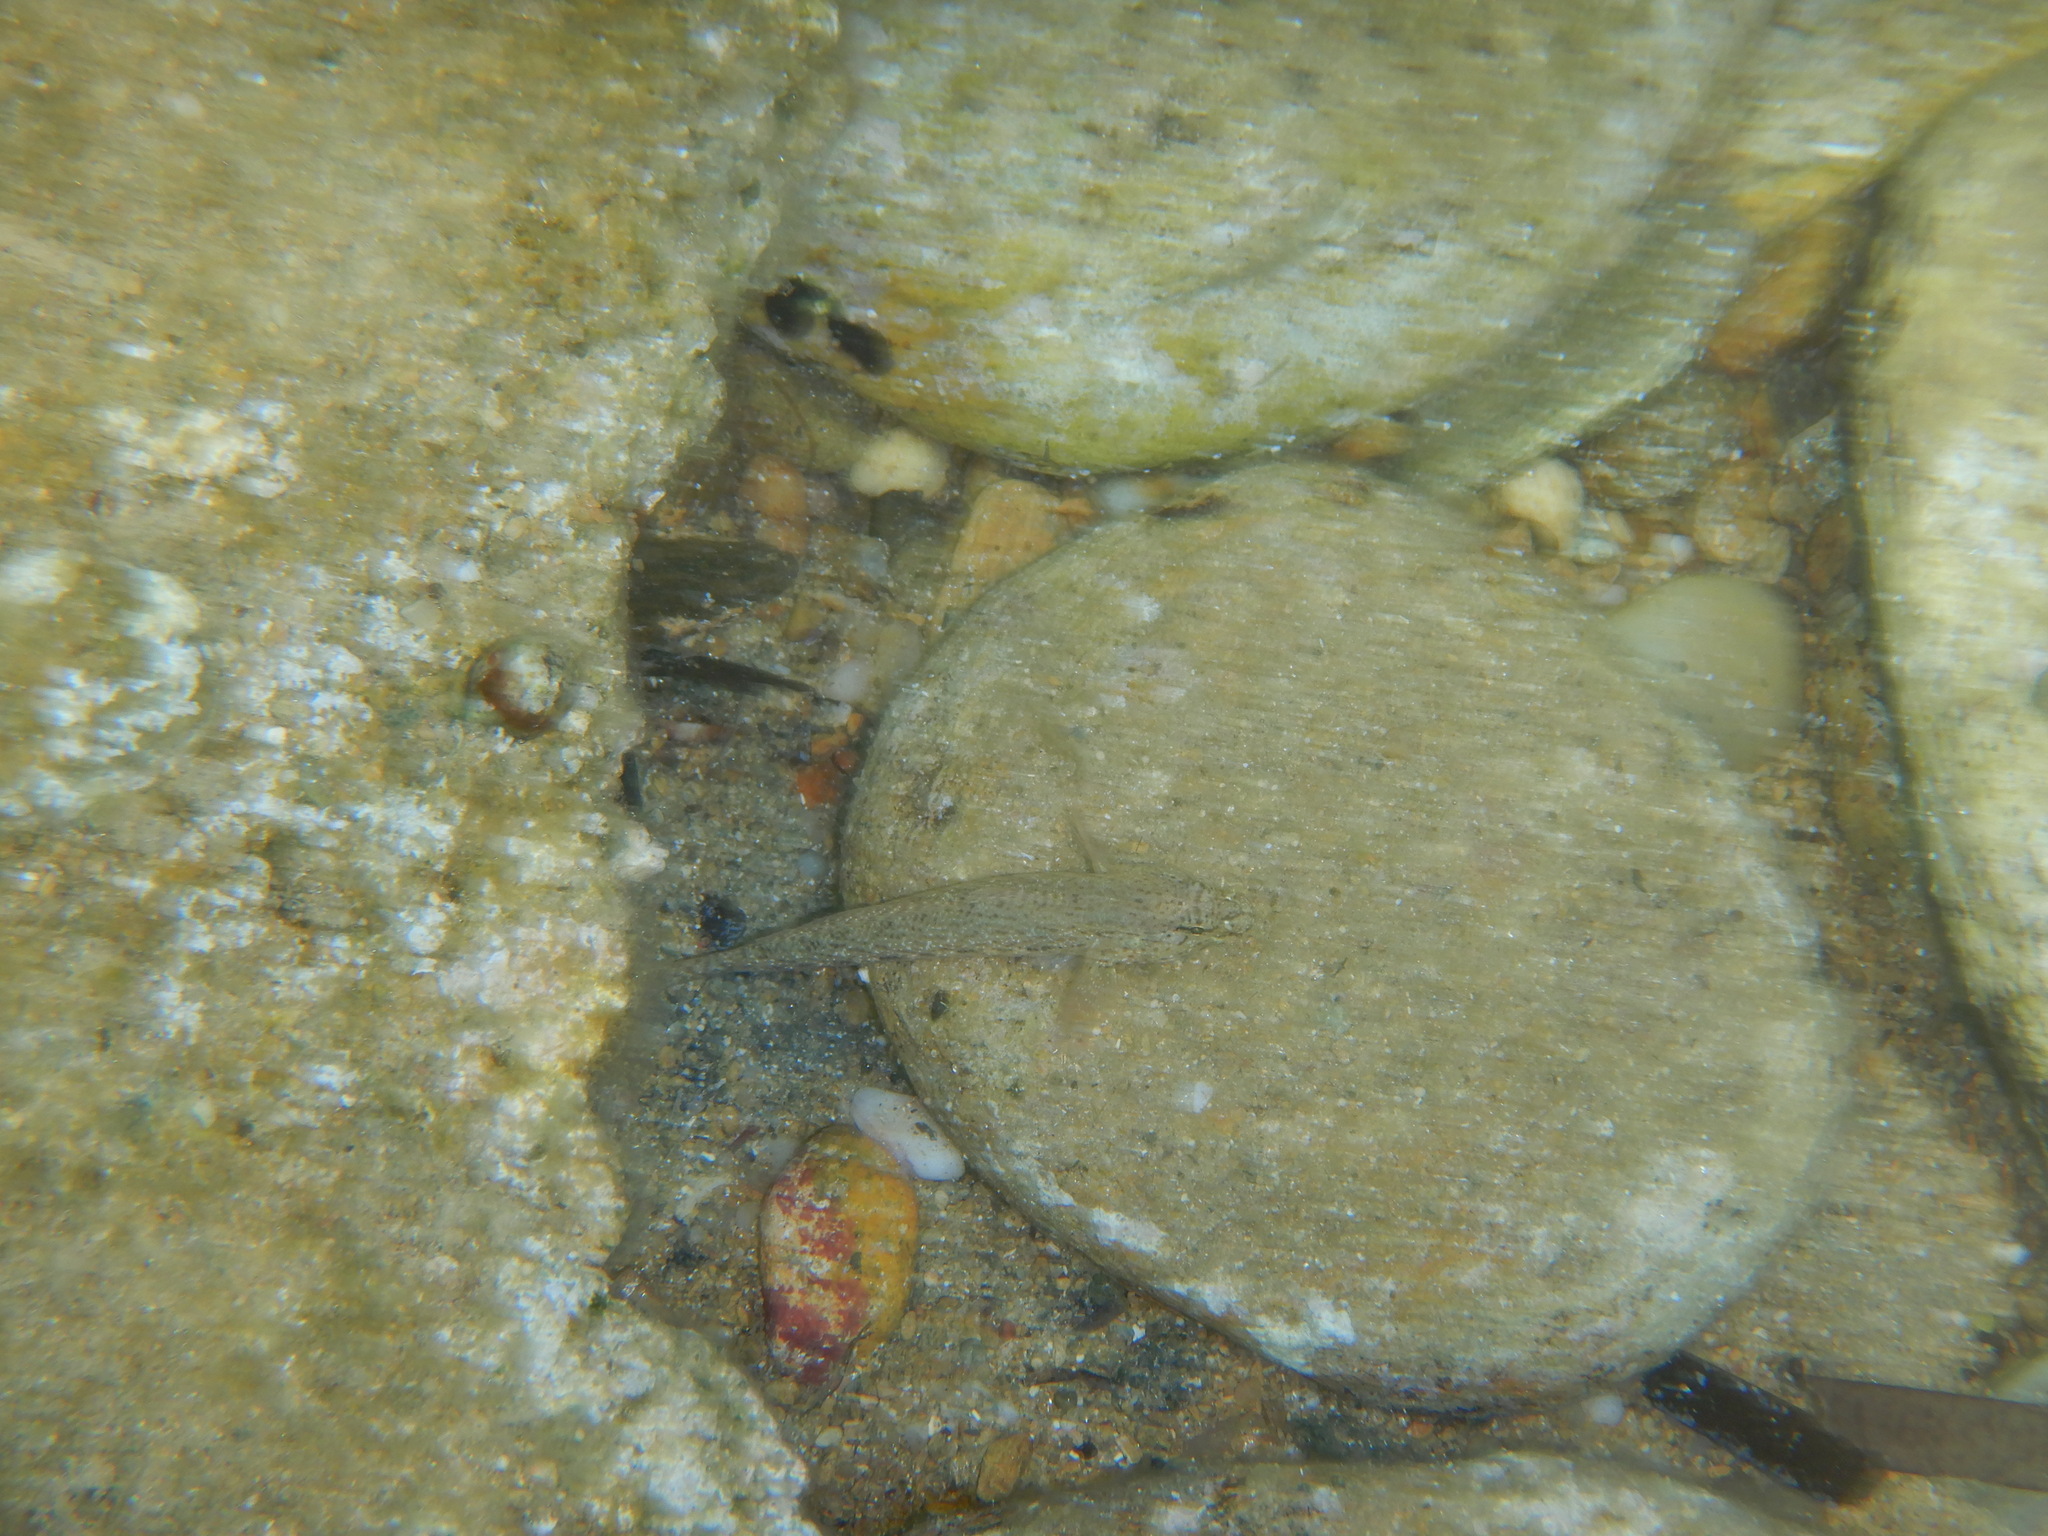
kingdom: Animalia
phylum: Chordata
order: Perciformes
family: Gobiidae
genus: Gobius
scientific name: Gobius incognitus
